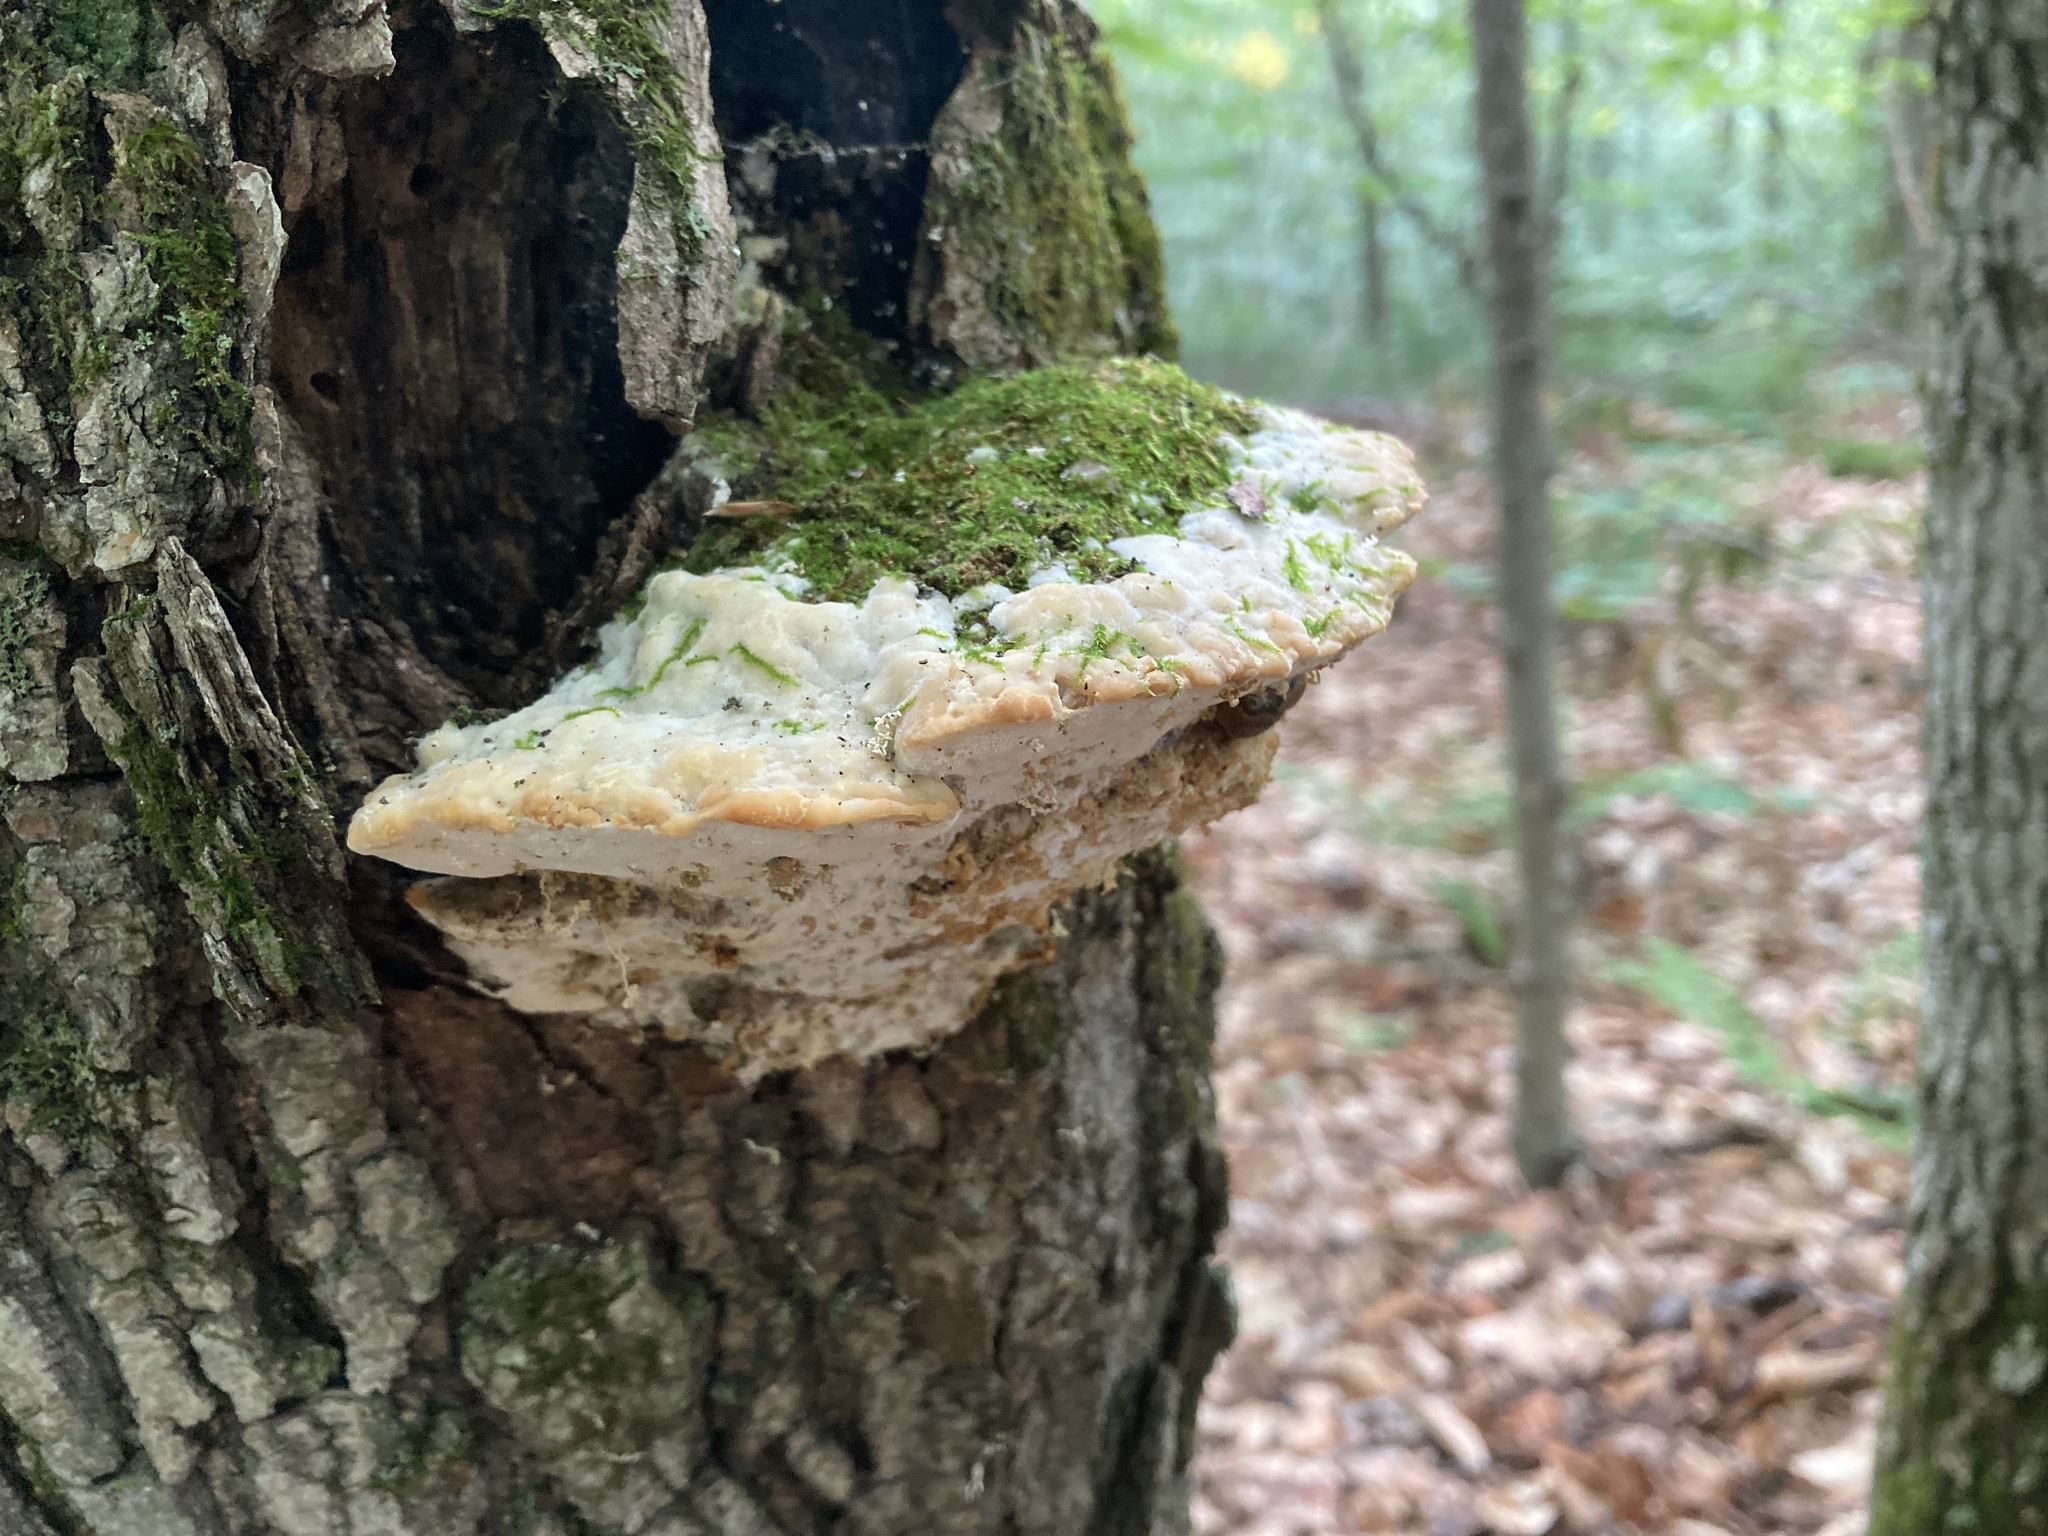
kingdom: Fungi
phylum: Basidiomycota
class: Agaricomycetes
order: Hymenochaetales
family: Oxyporaceae
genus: Oxyporus
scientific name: Oxyporus populinus
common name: Poplar bracket
